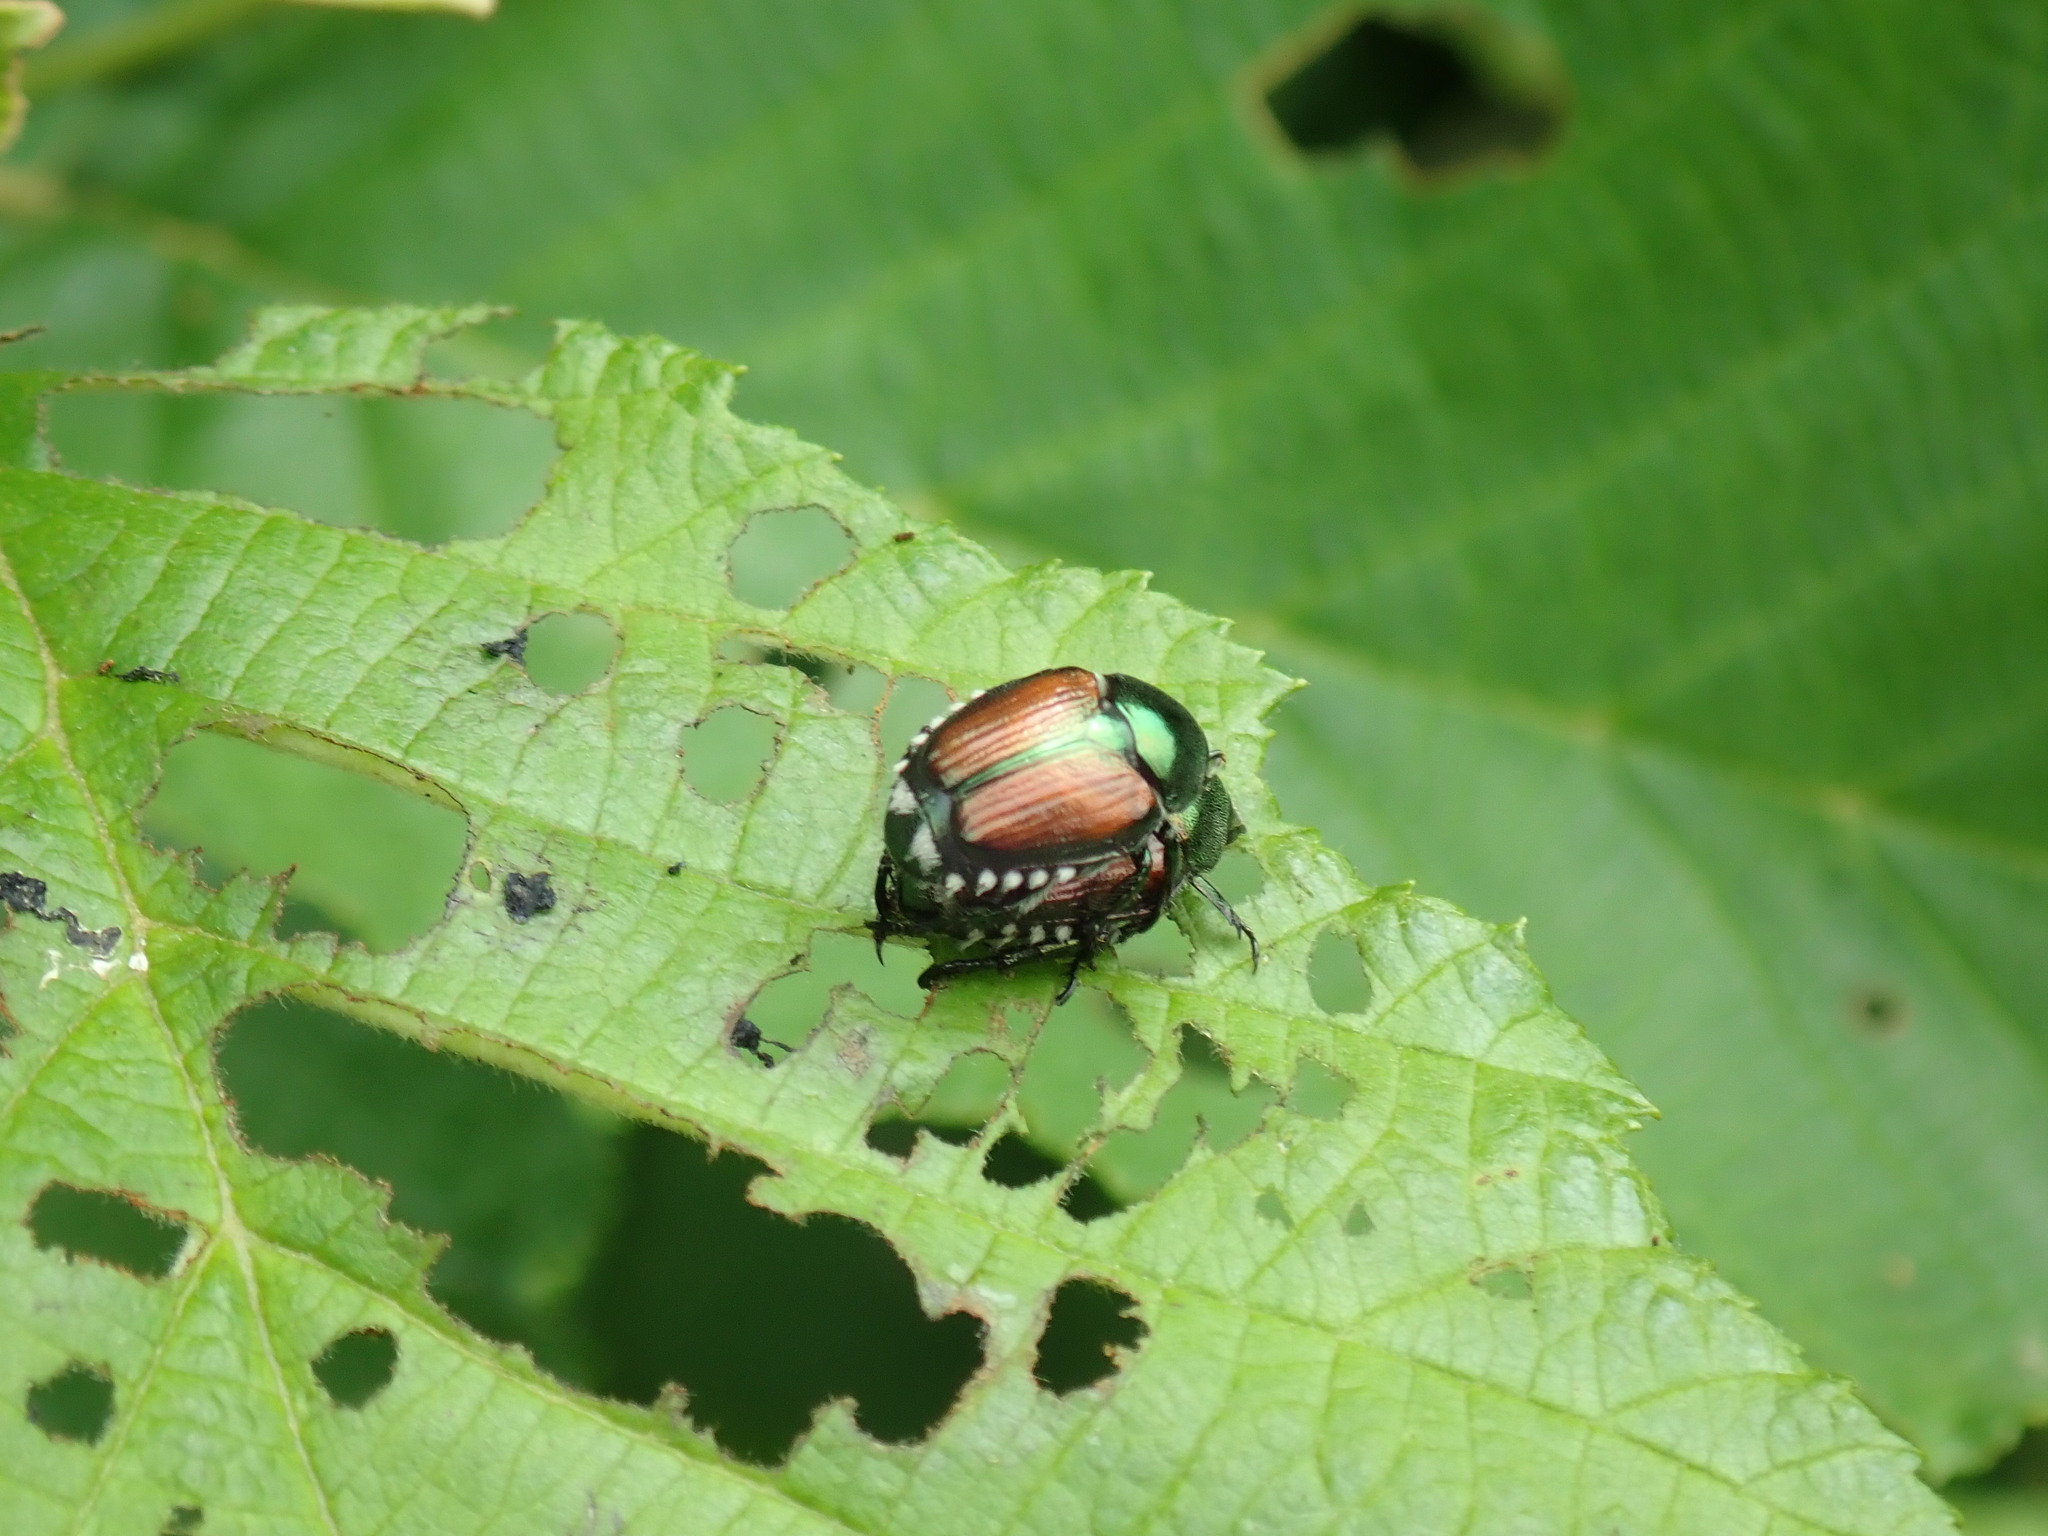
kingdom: Animalia
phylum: Arthropoda
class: Insecta
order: Coleoptera
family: Scarabaeidae
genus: Popillia
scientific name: Popillia japonica
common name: Japanese beetle
